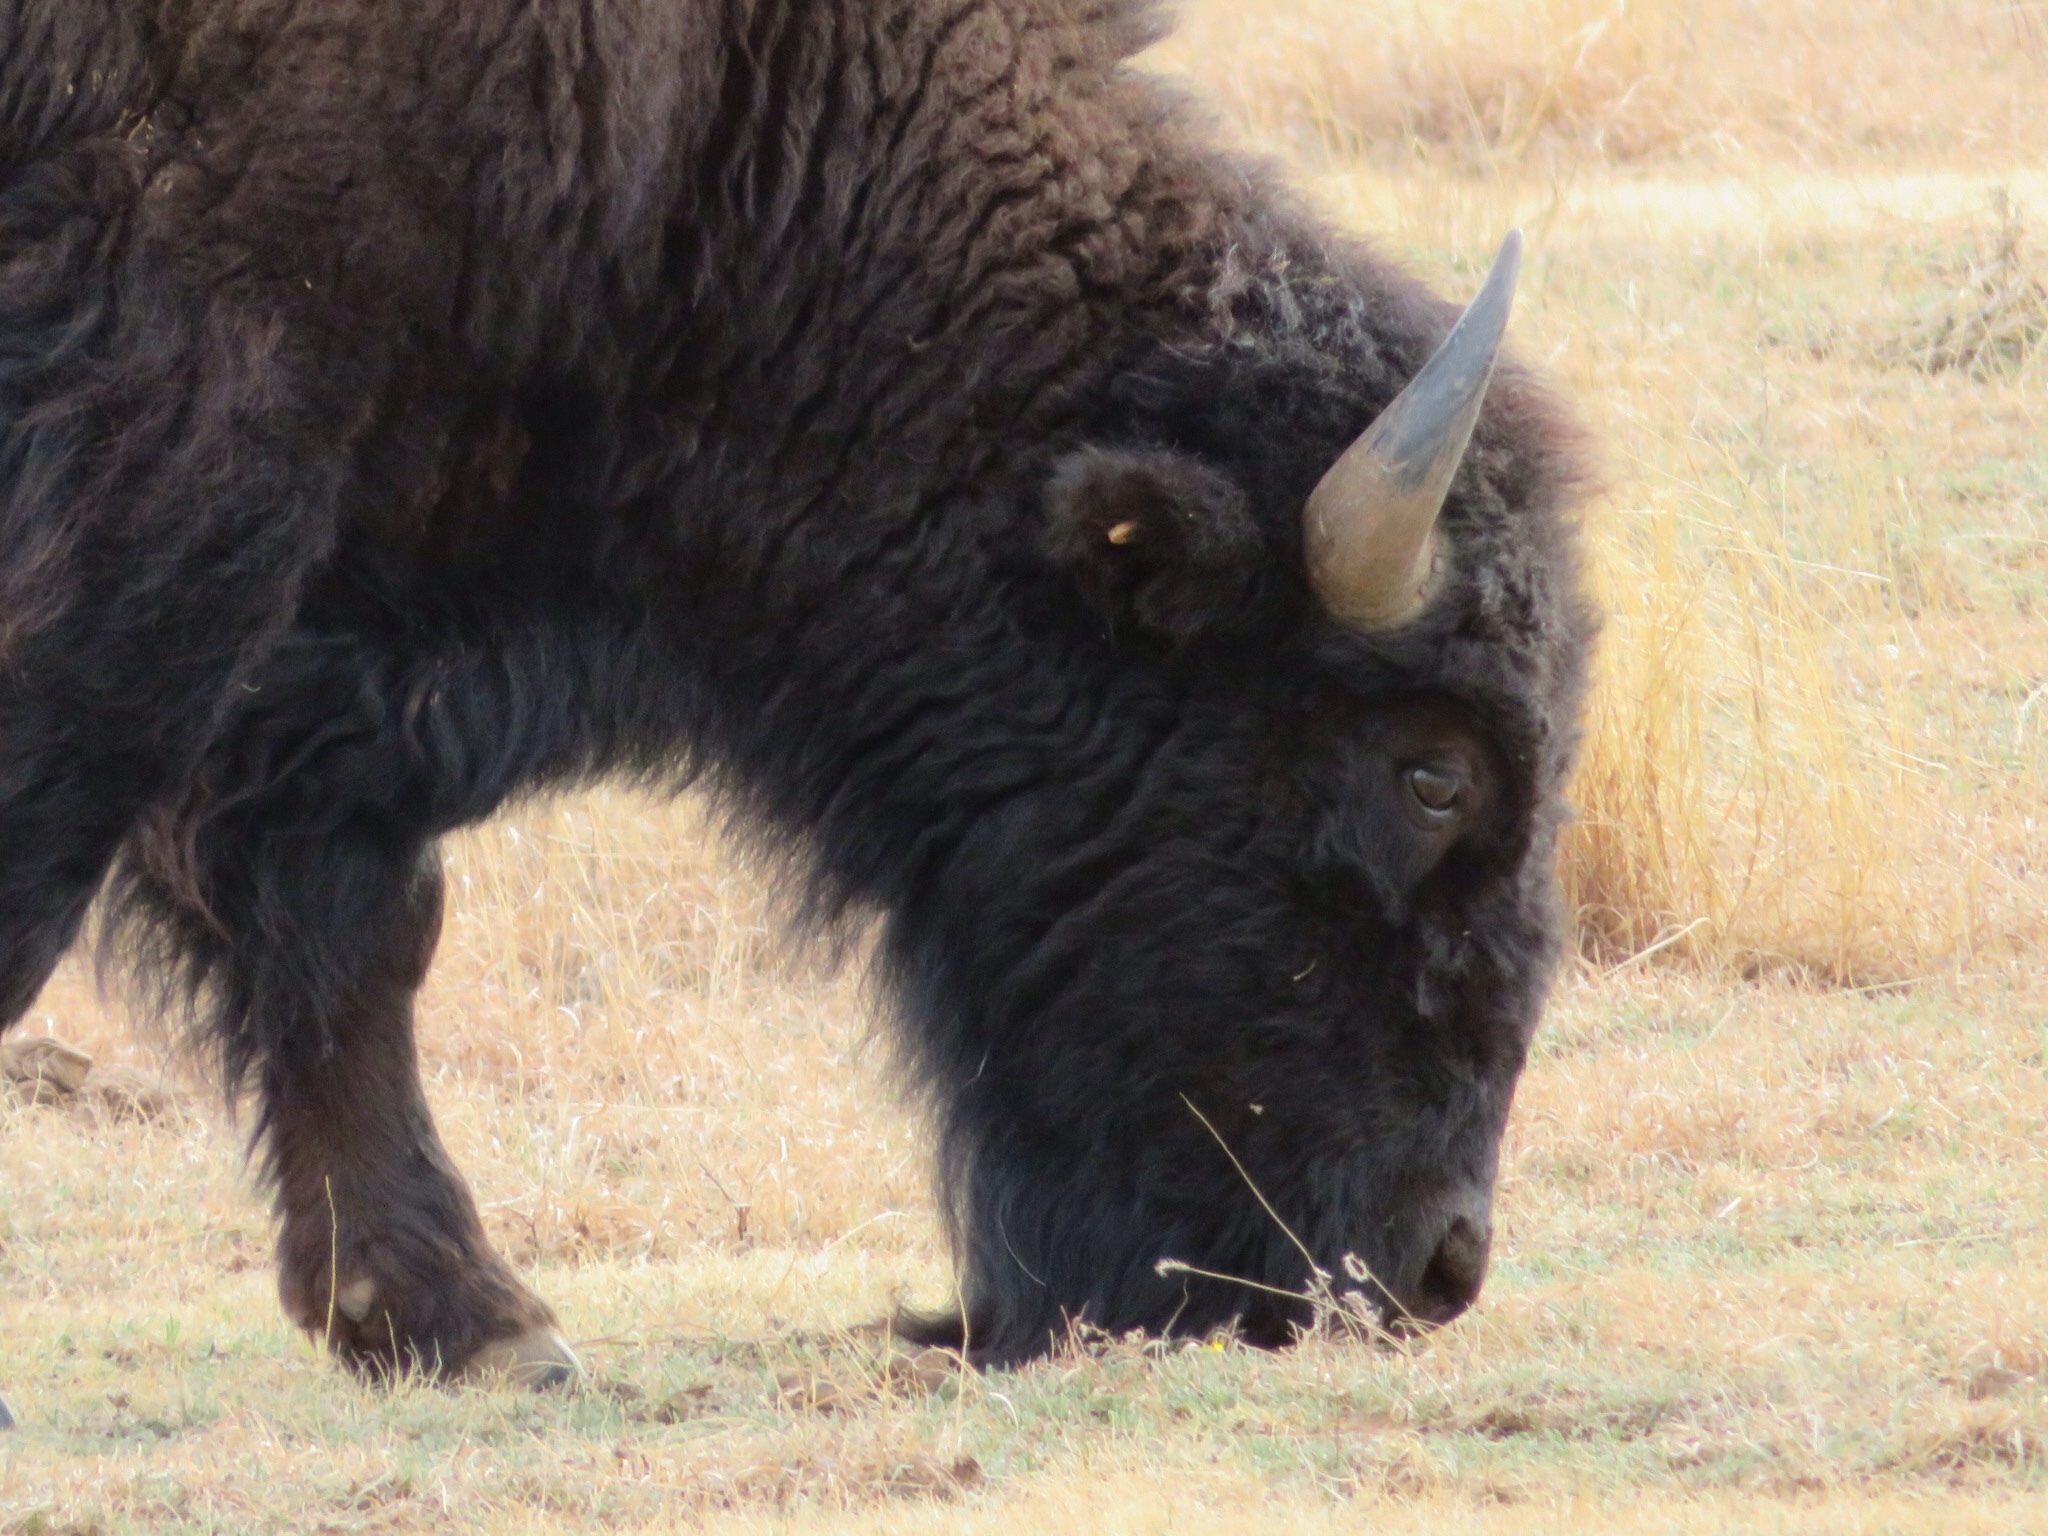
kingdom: Animalia
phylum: Chordata
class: Mammalia
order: Artiodactyla
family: Bovidae
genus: Bison
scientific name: Bison bison
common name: American bison
